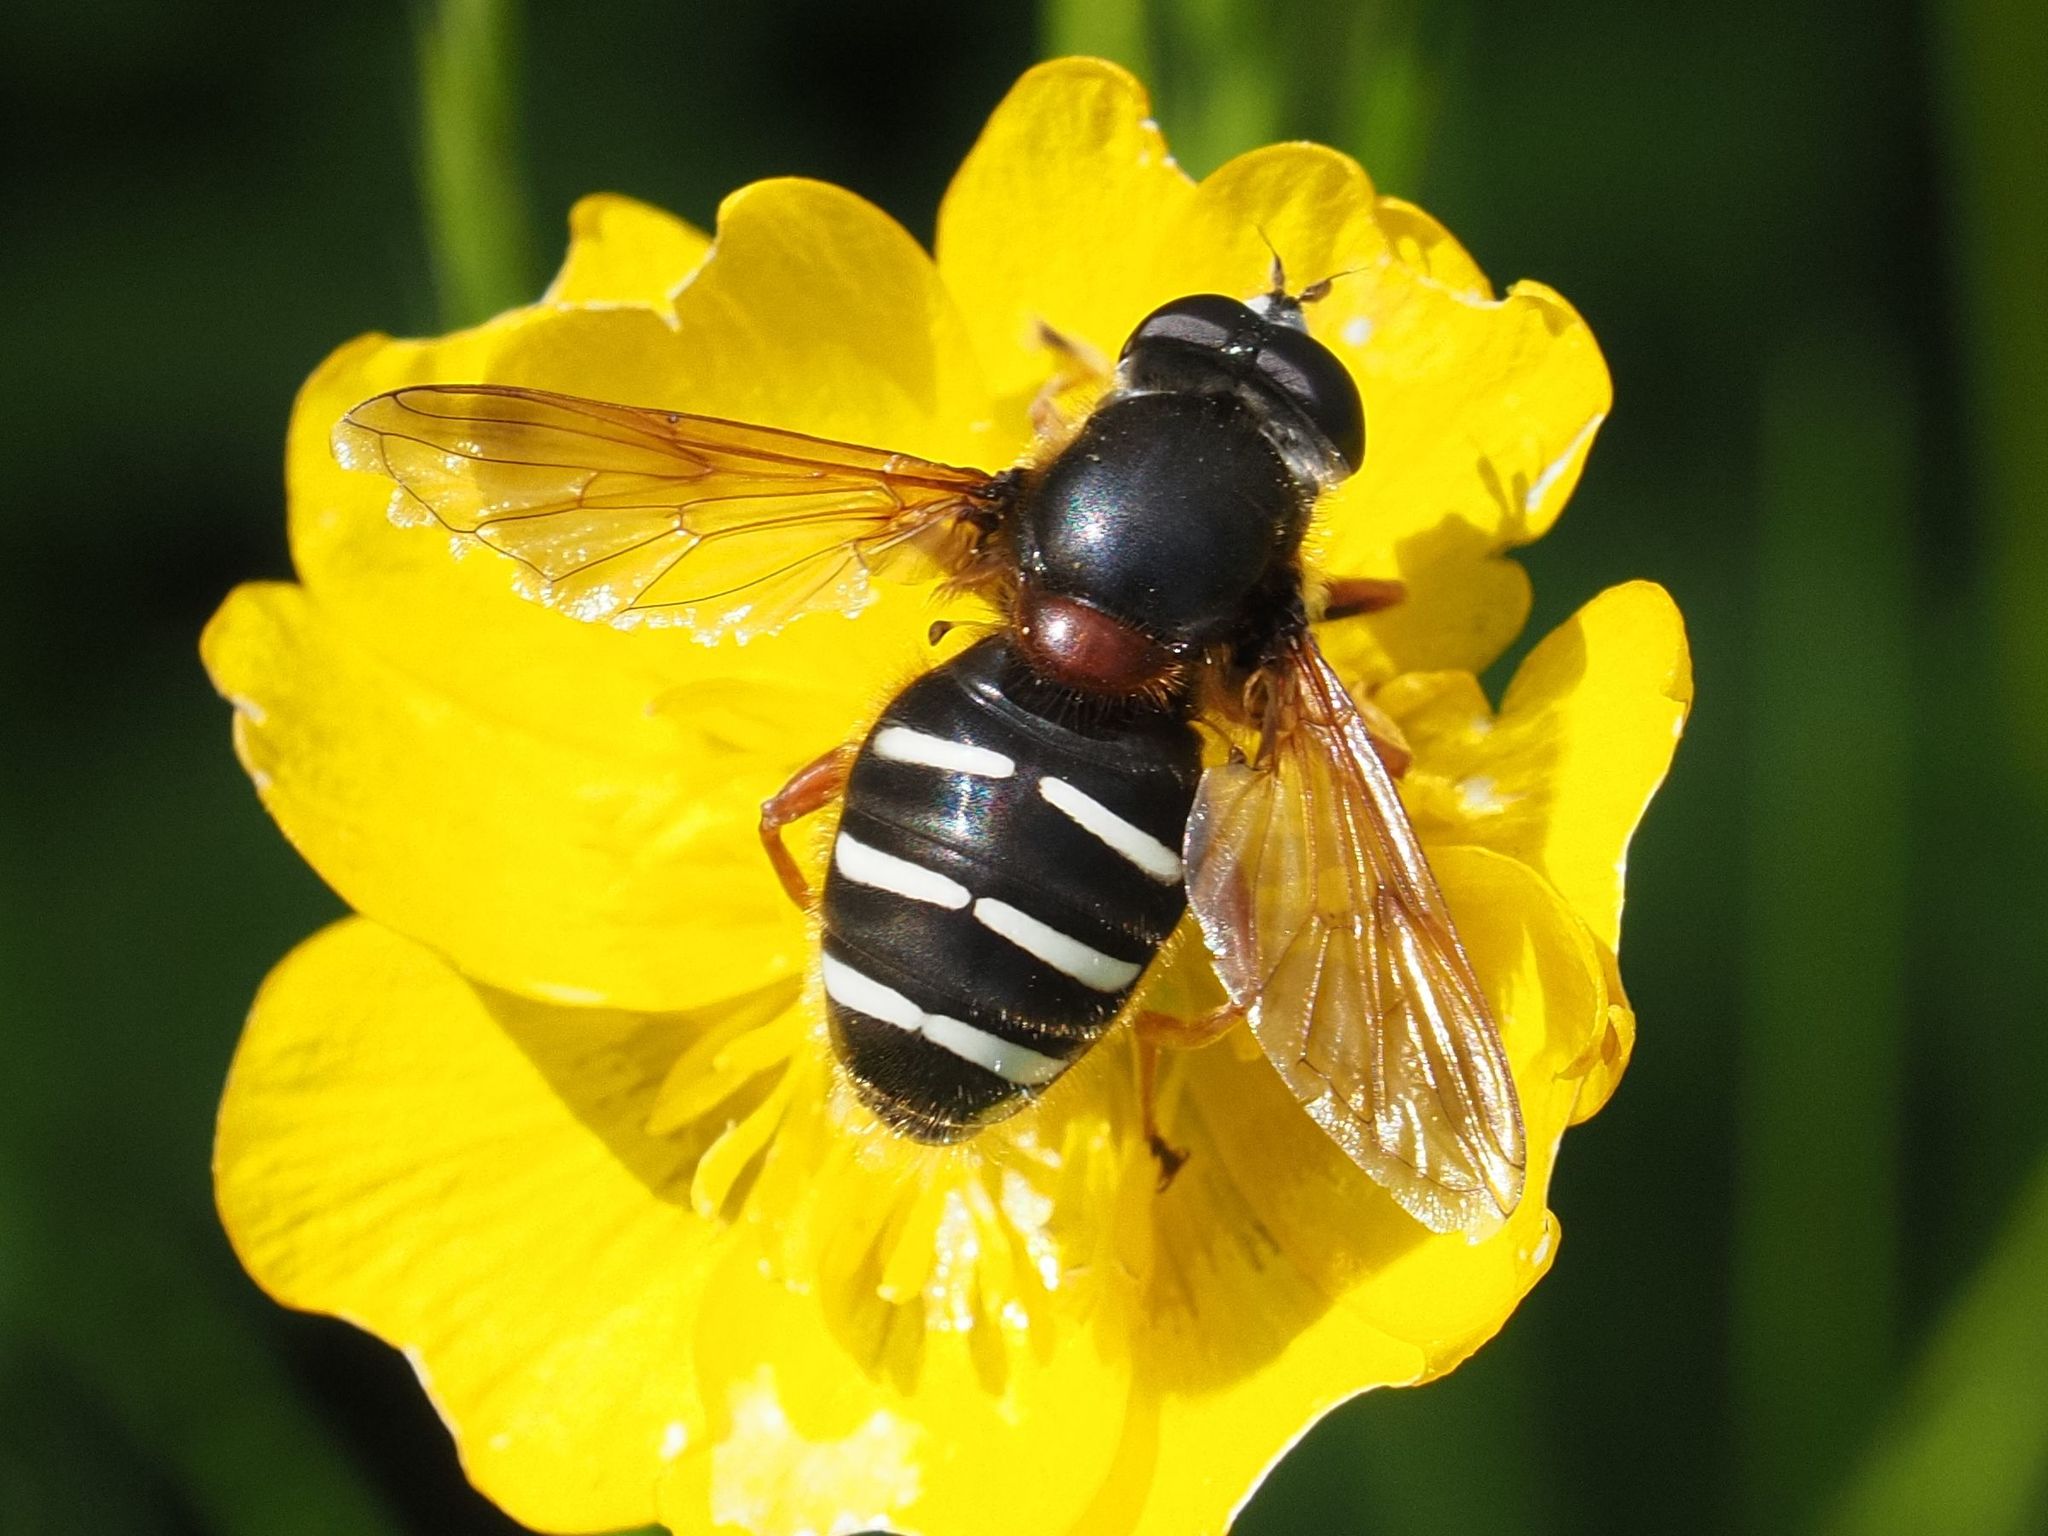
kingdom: Animalia
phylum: Arthropoda
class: Insecta
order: Diptera
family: Syrphidae
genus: Sericomyia
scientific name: Sericomyia lappona
